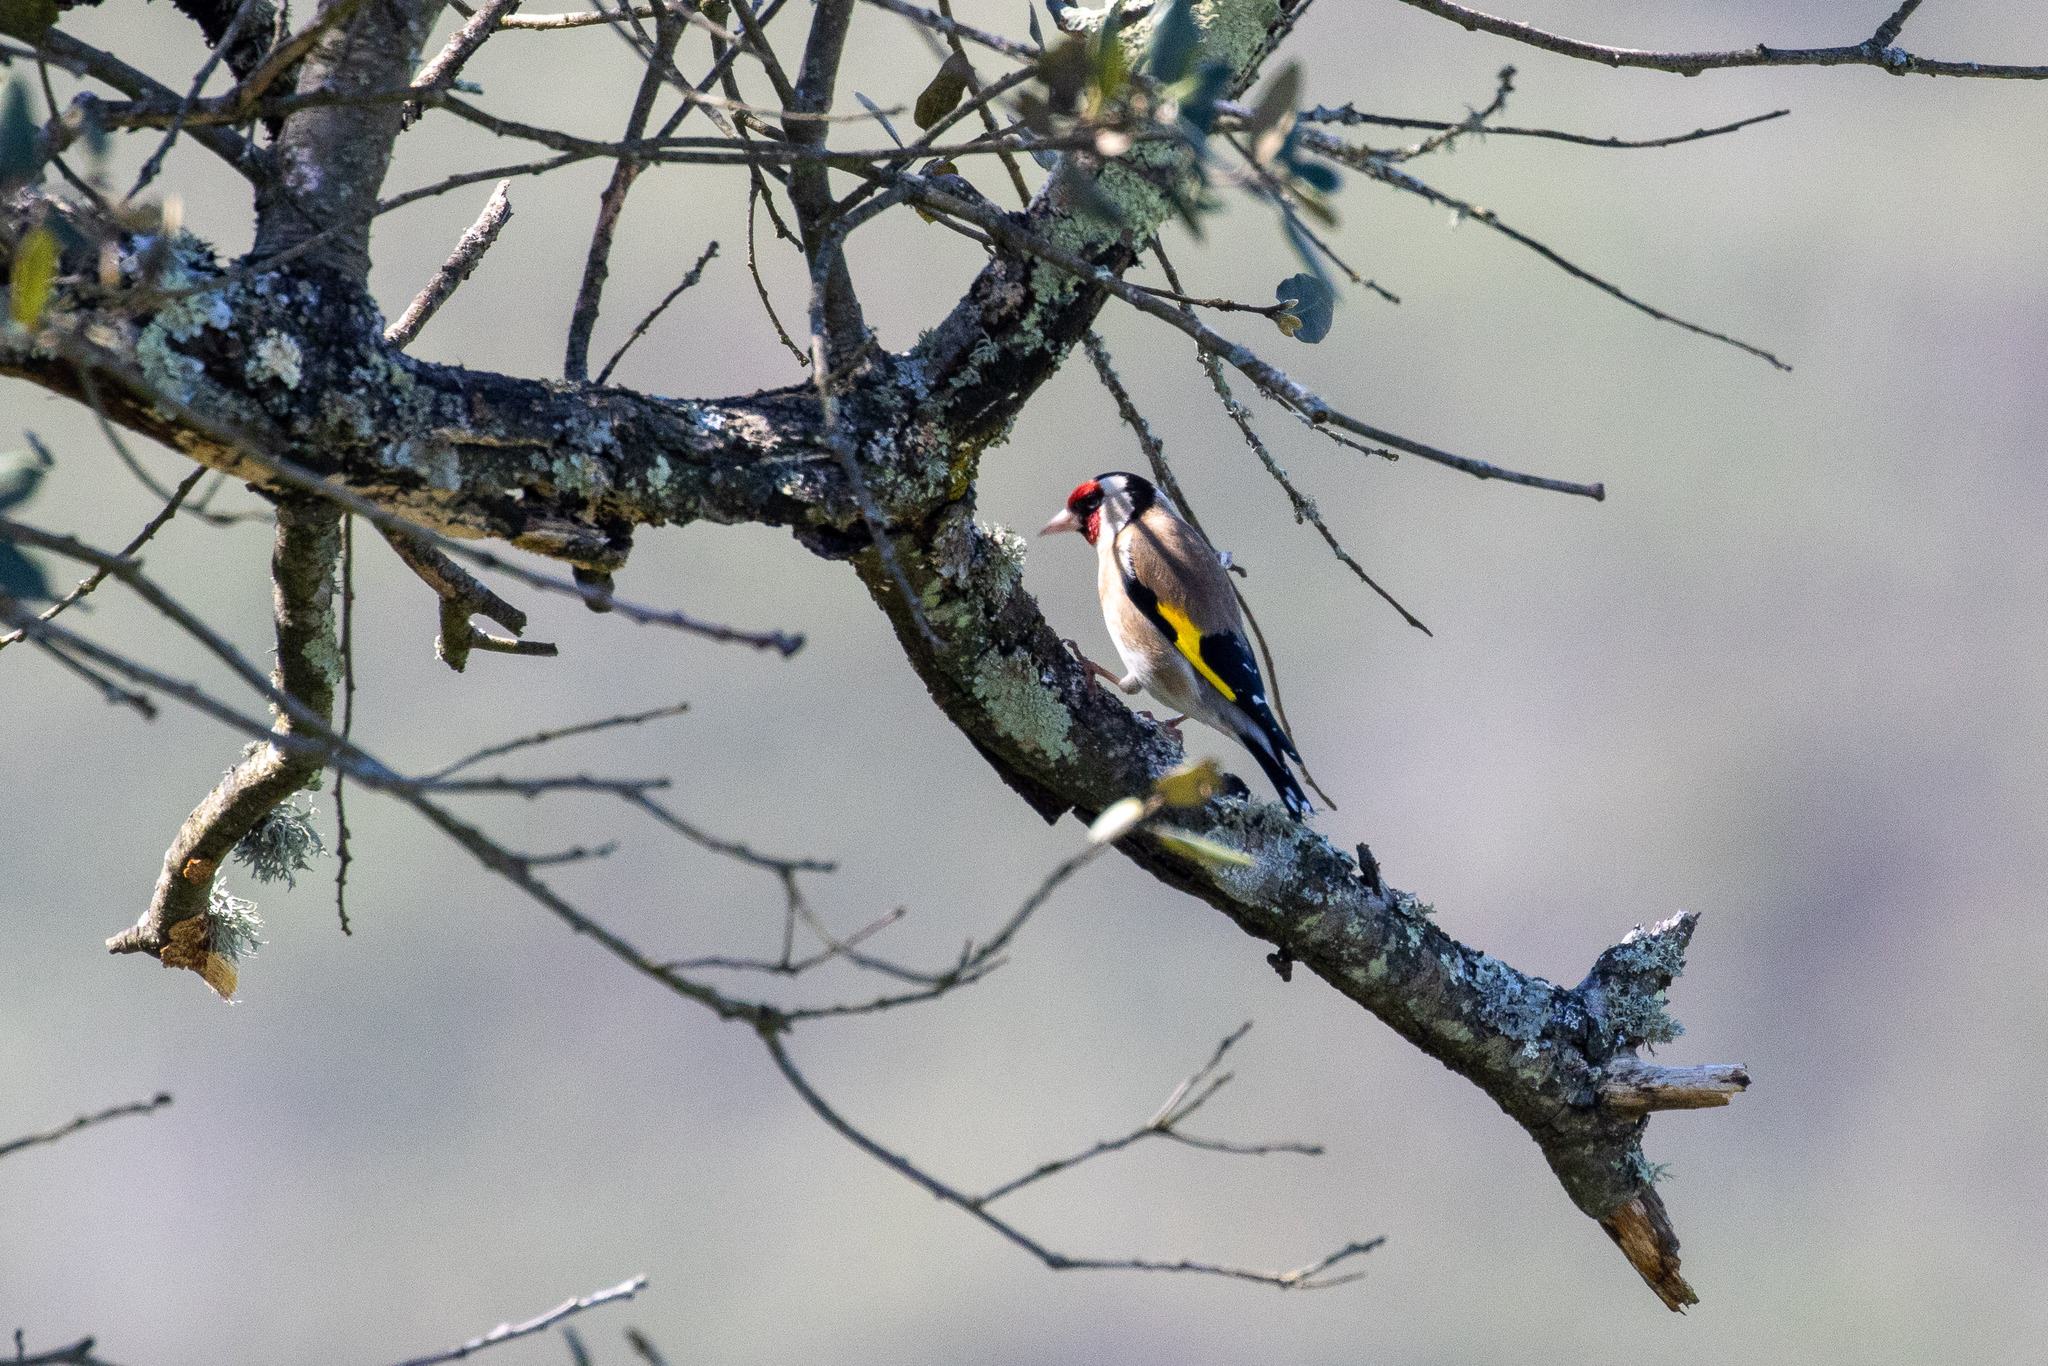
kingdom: Animalia
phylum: Chordata
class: Aves
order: Passeriformes
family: Fringillidae
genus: Carduelis
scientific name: Carduelis carduelis
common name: European goldfinch
